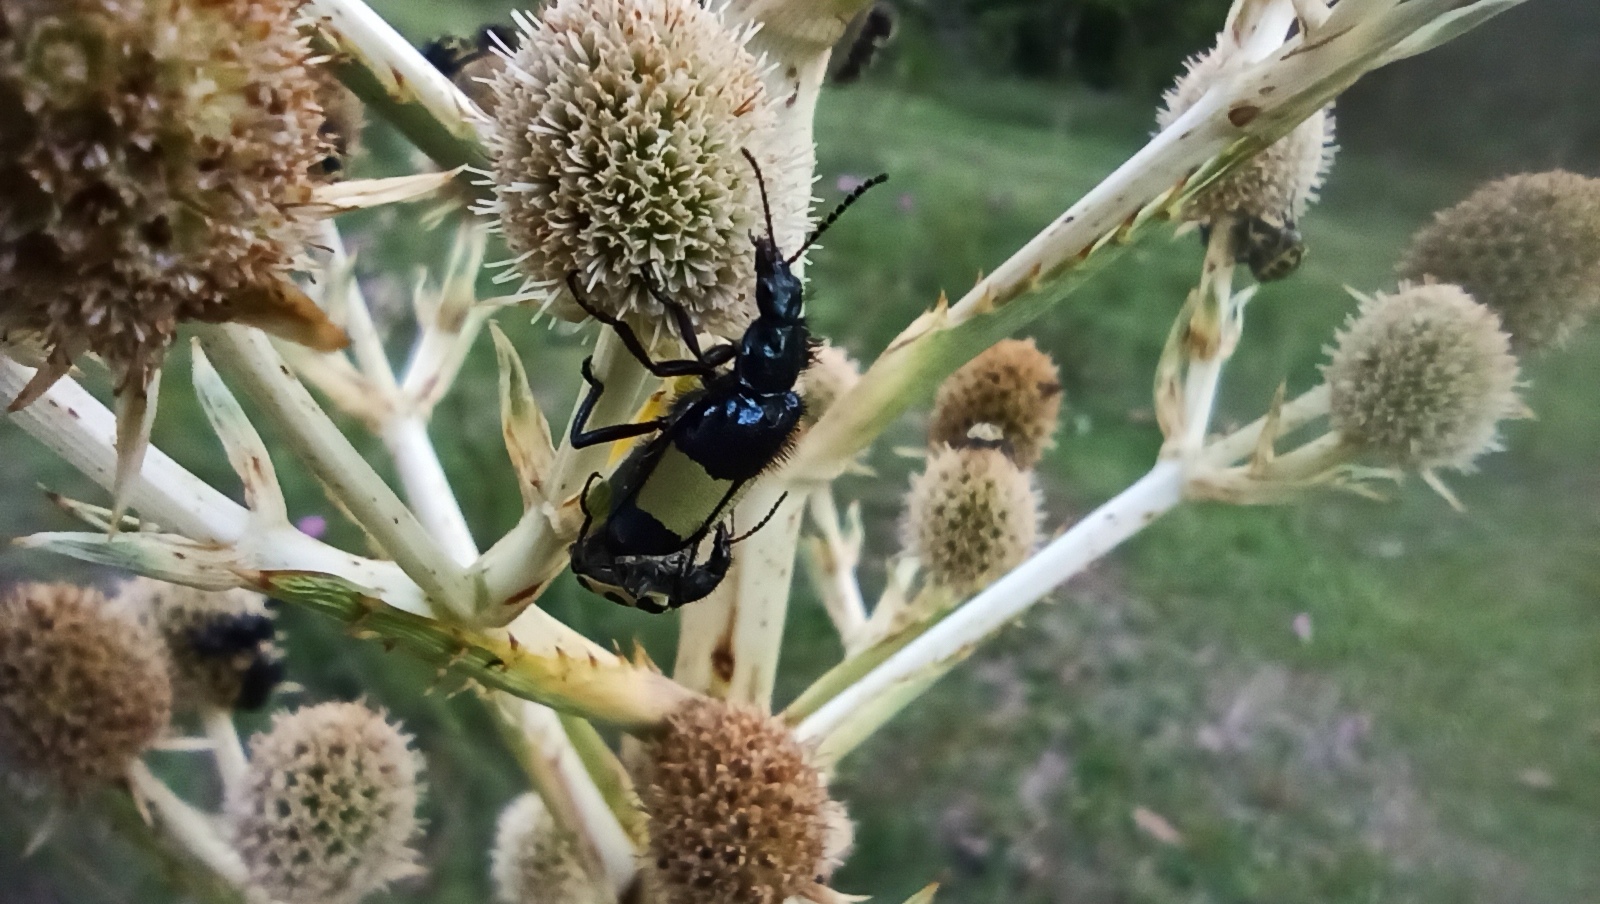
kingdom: Animalia
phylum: Arthropoda
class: Insecta
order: Coleoptera
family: Melyridae
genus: Astylus
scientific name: Astylus
